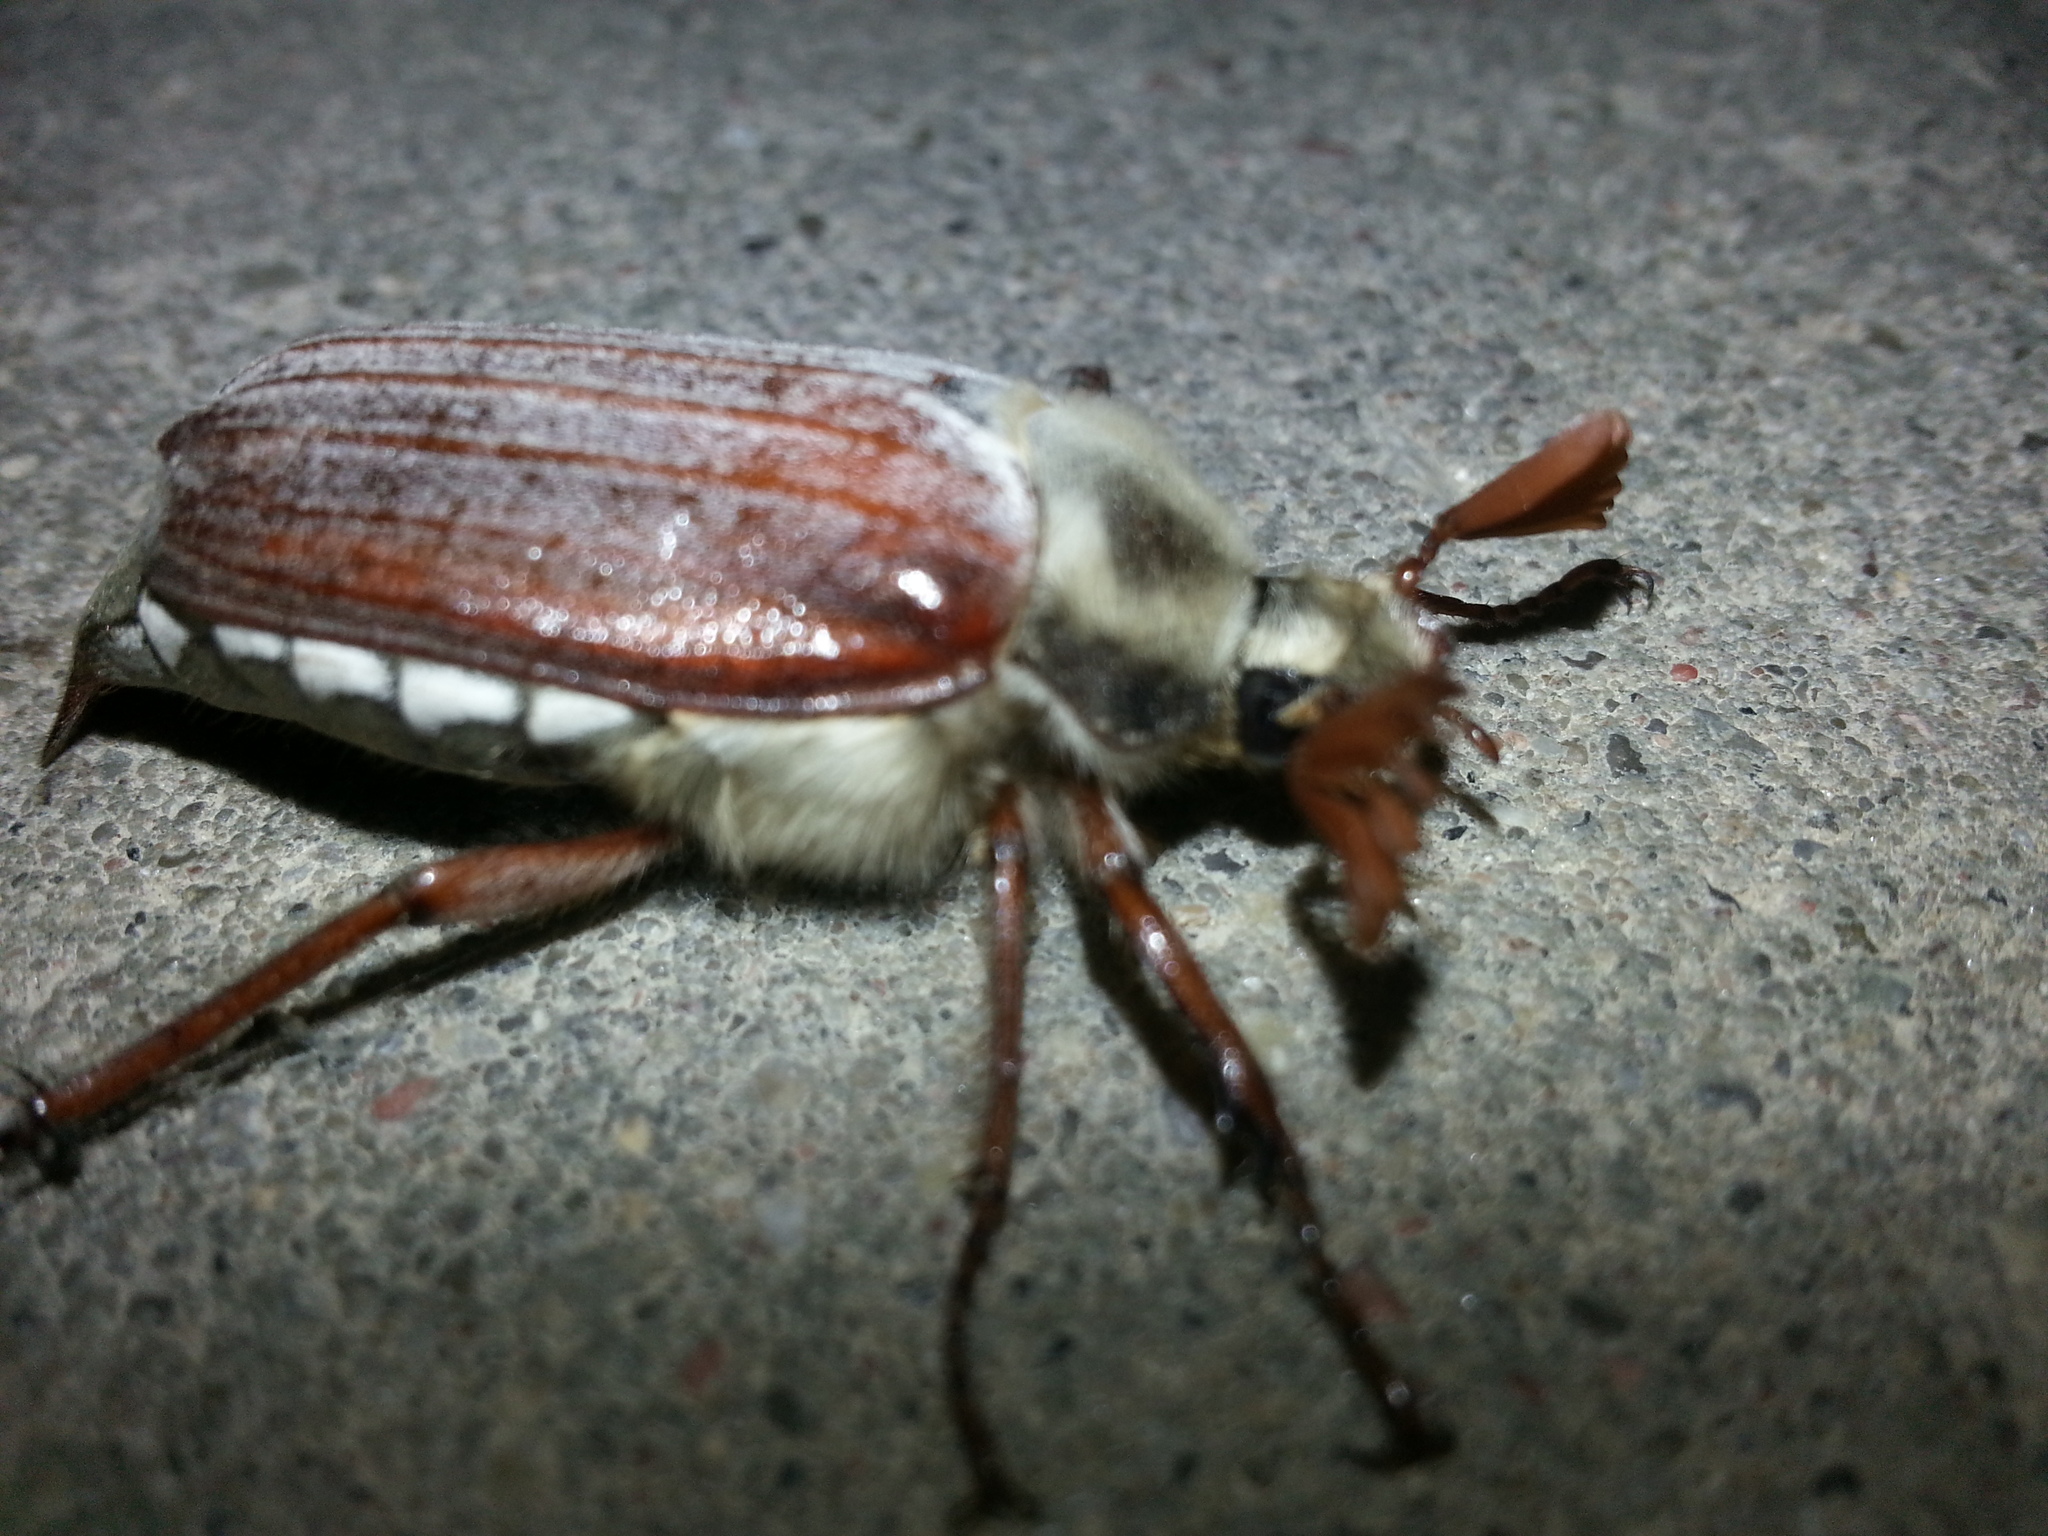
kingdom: Animalia
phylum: Arthropoda
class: Insecta
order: Coleoptera
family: Scarabaeidae
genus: Melolontha
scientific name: Melolontha melolontha
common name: Cockchafer maybeetle
